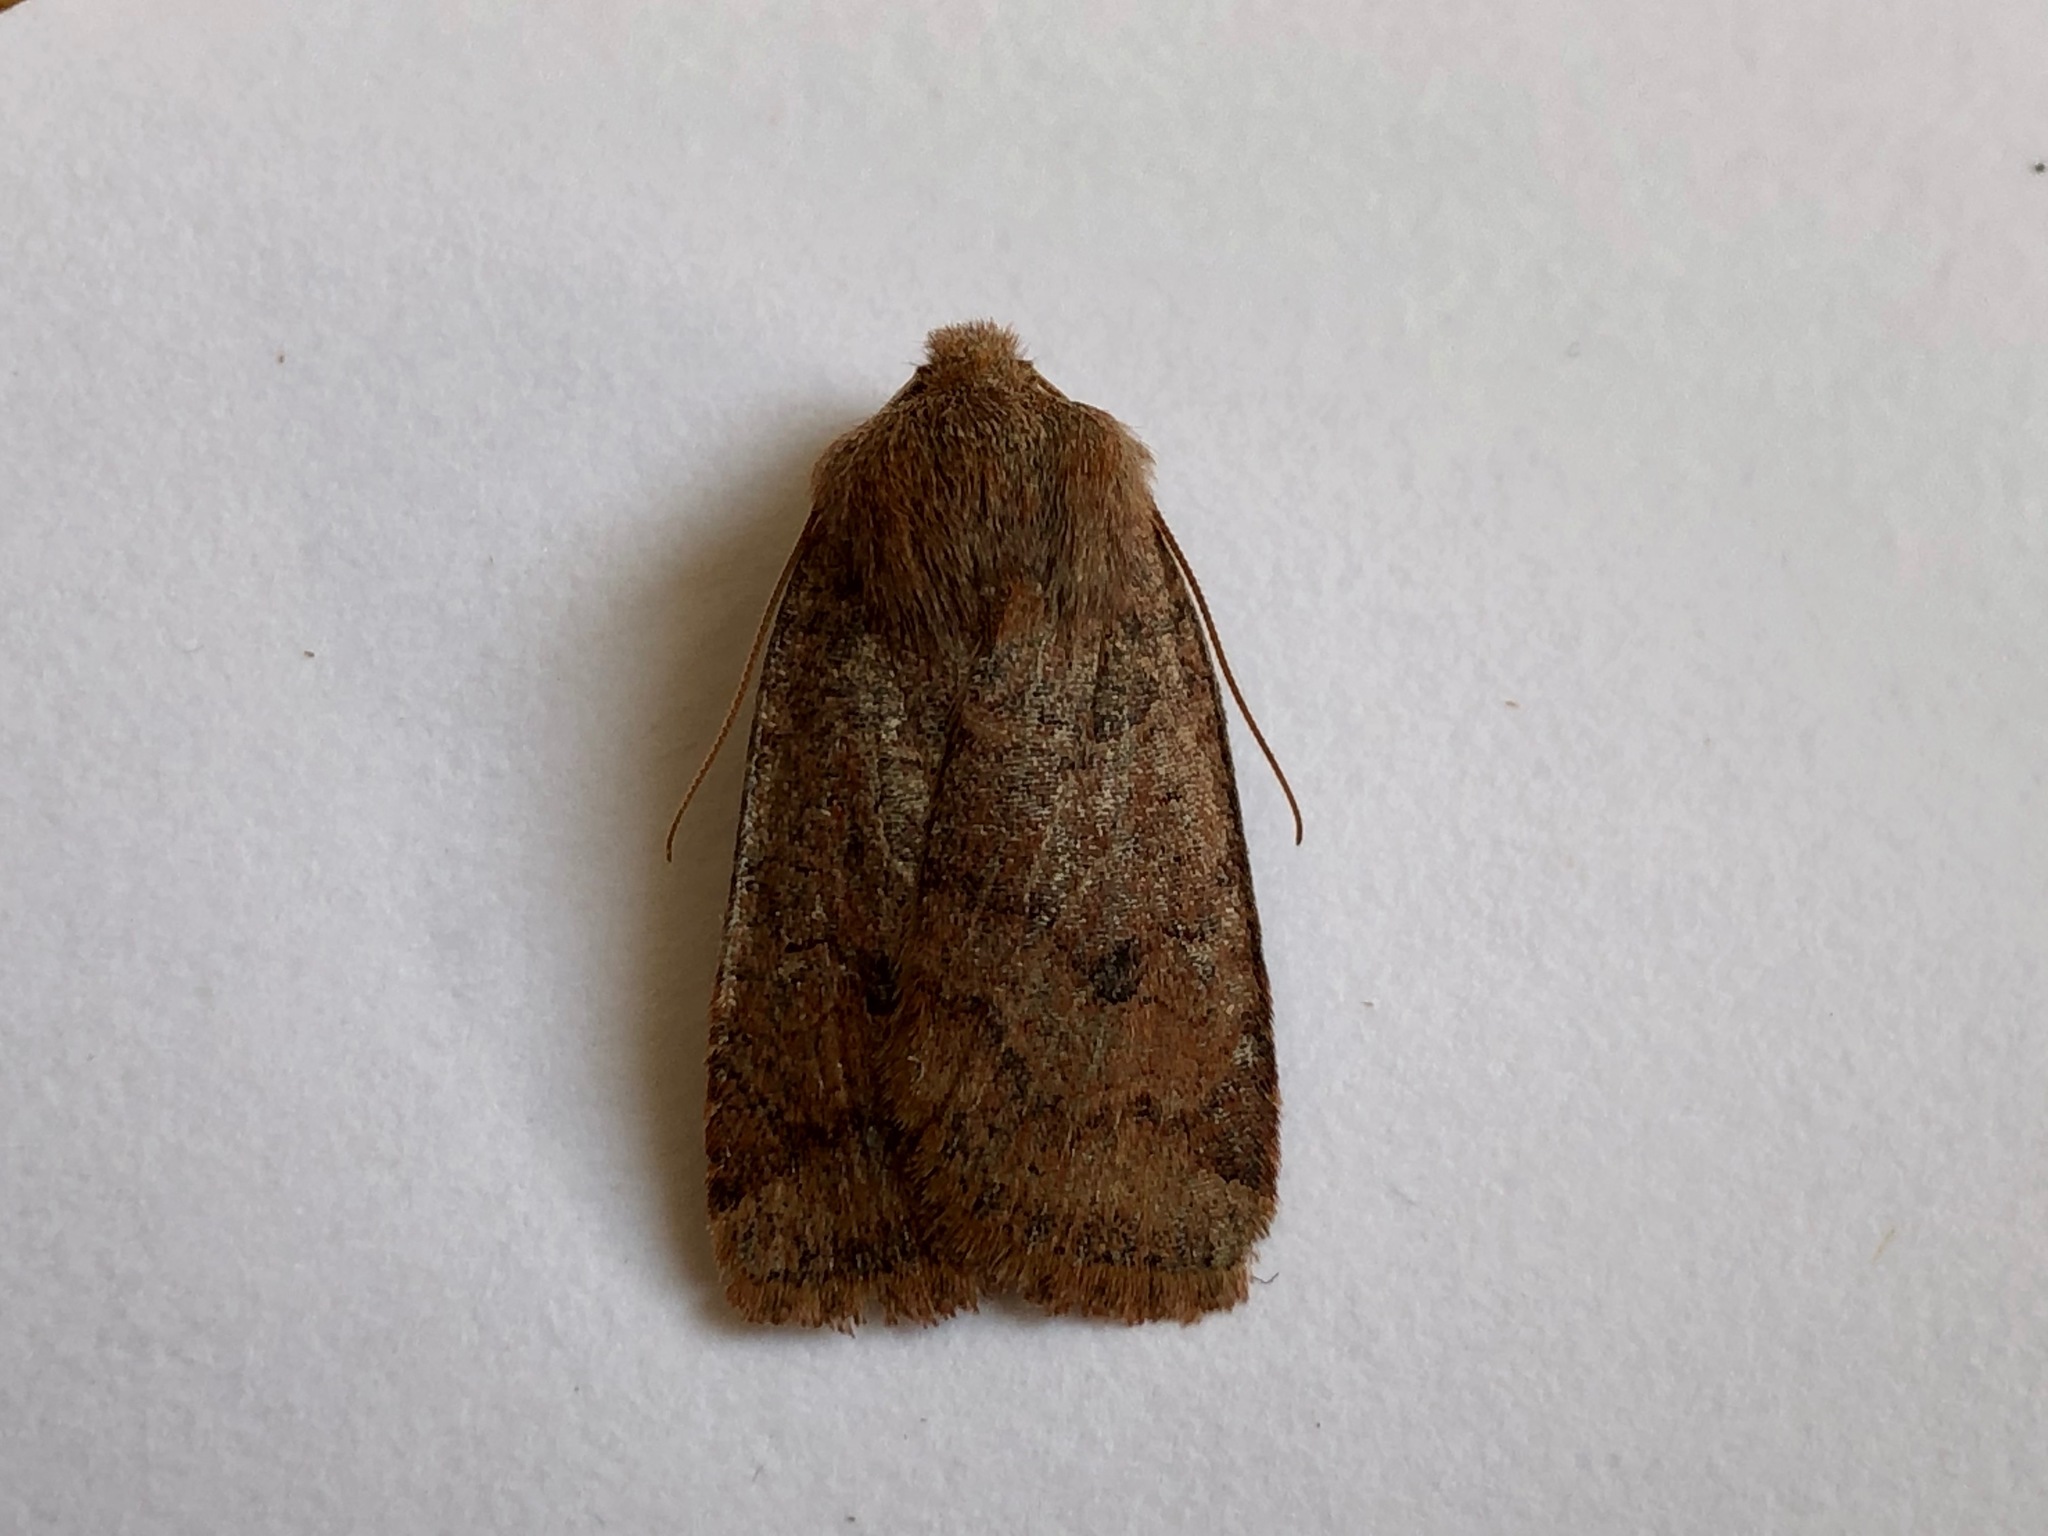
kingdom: Animalia
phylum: Arthropoda
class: Insecta
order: Lepidoptera
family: Noctuidae
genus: Conistra
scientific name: Conistra vaccinii
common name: Chestnut
